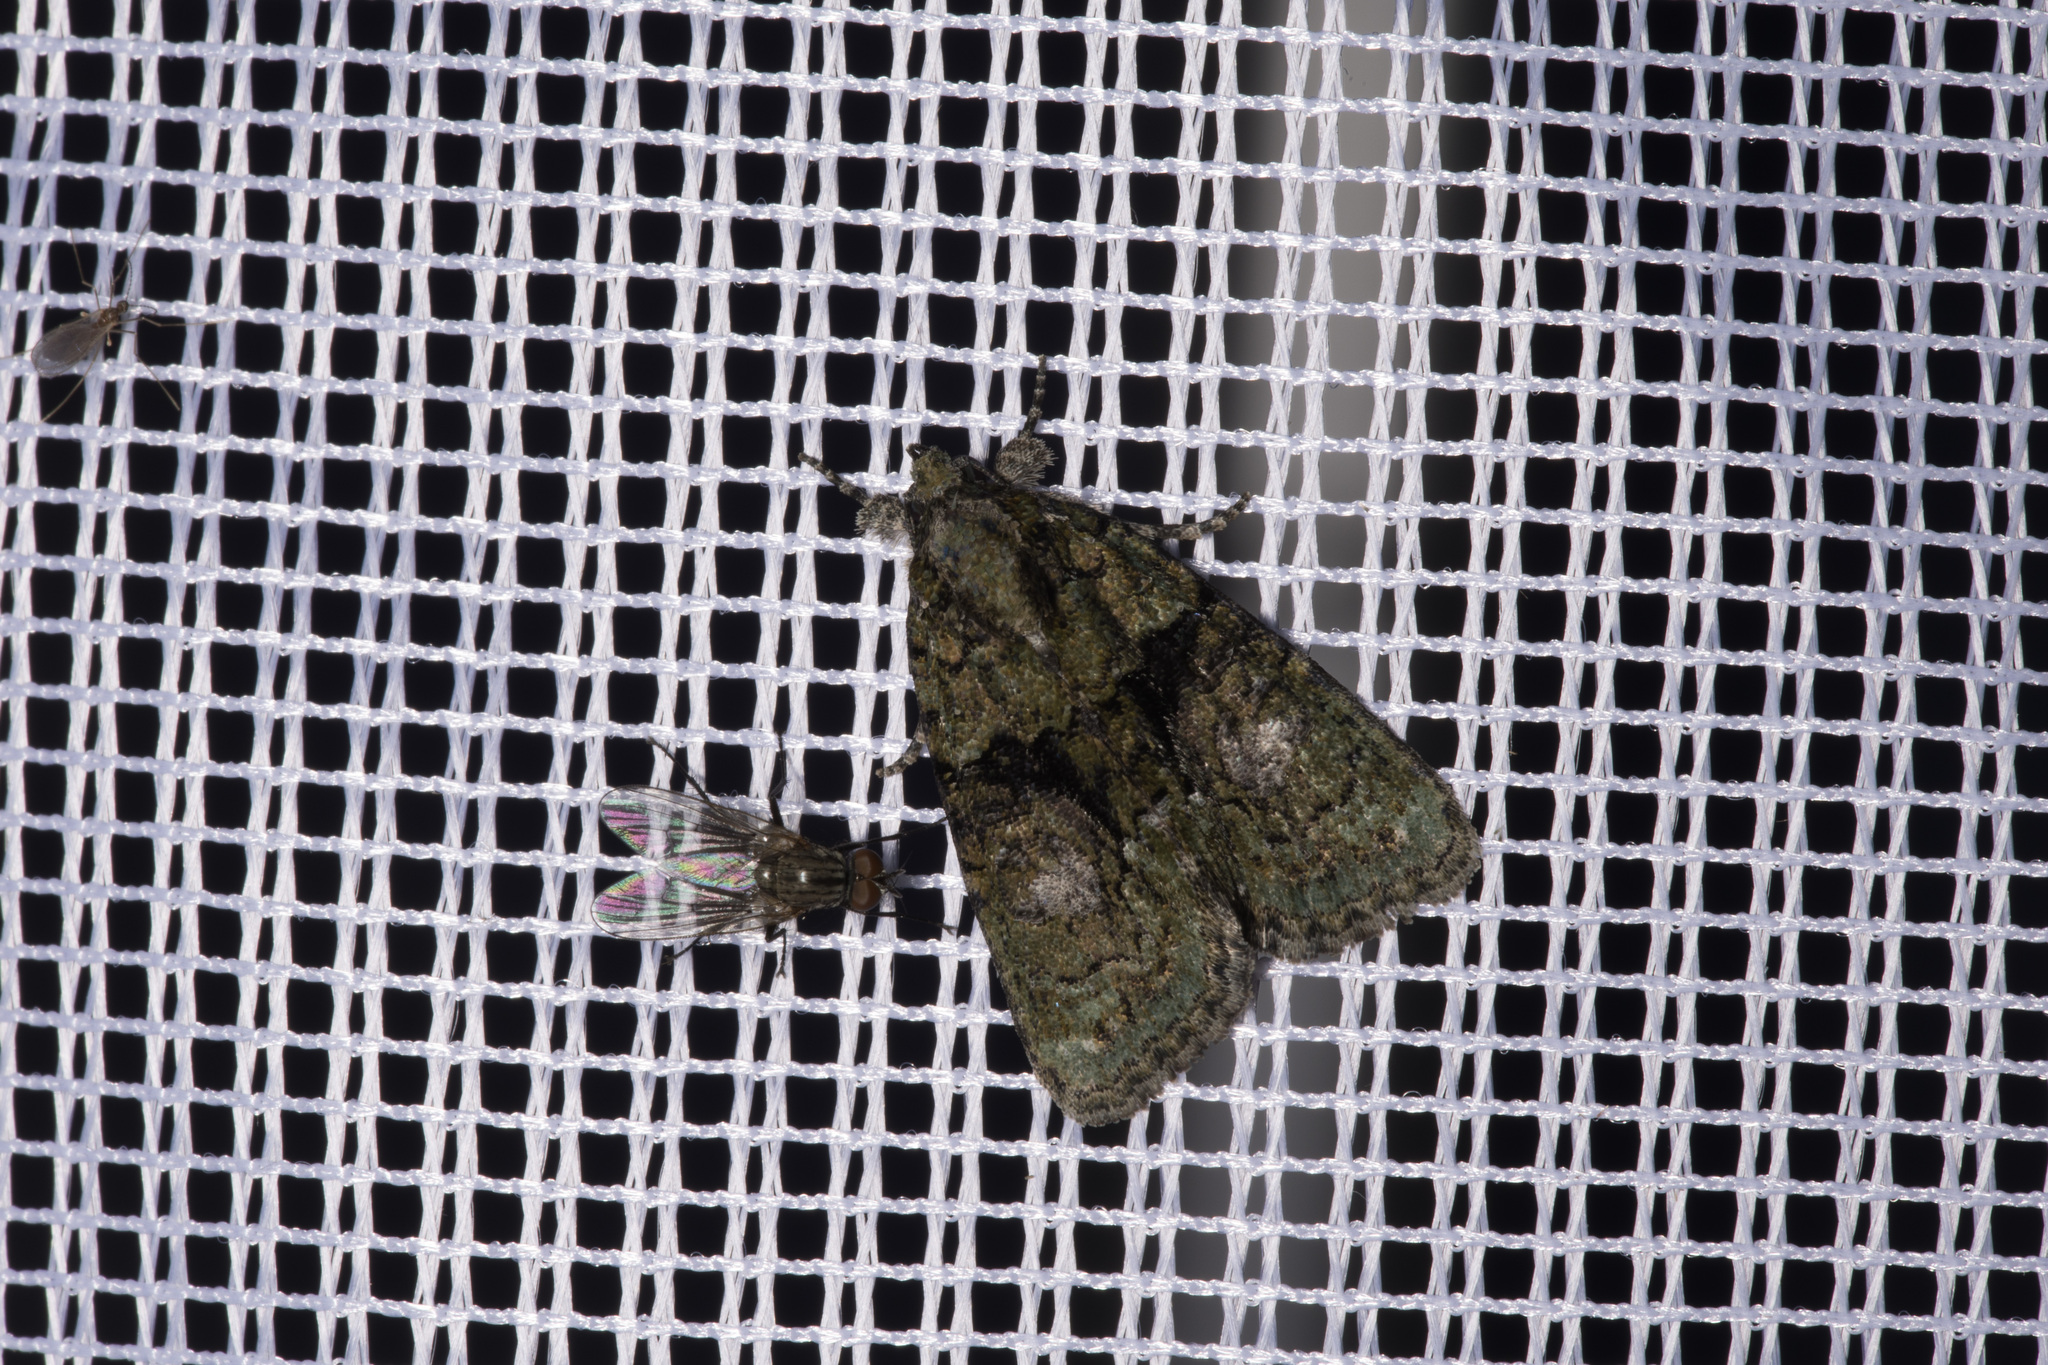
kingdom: Animalia
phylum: Arthropoda
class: Insecta
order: Lepidoptera
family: Noctuidae
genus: Cryphia
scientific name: Cryphia algae
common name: Tree-lichen beauty
